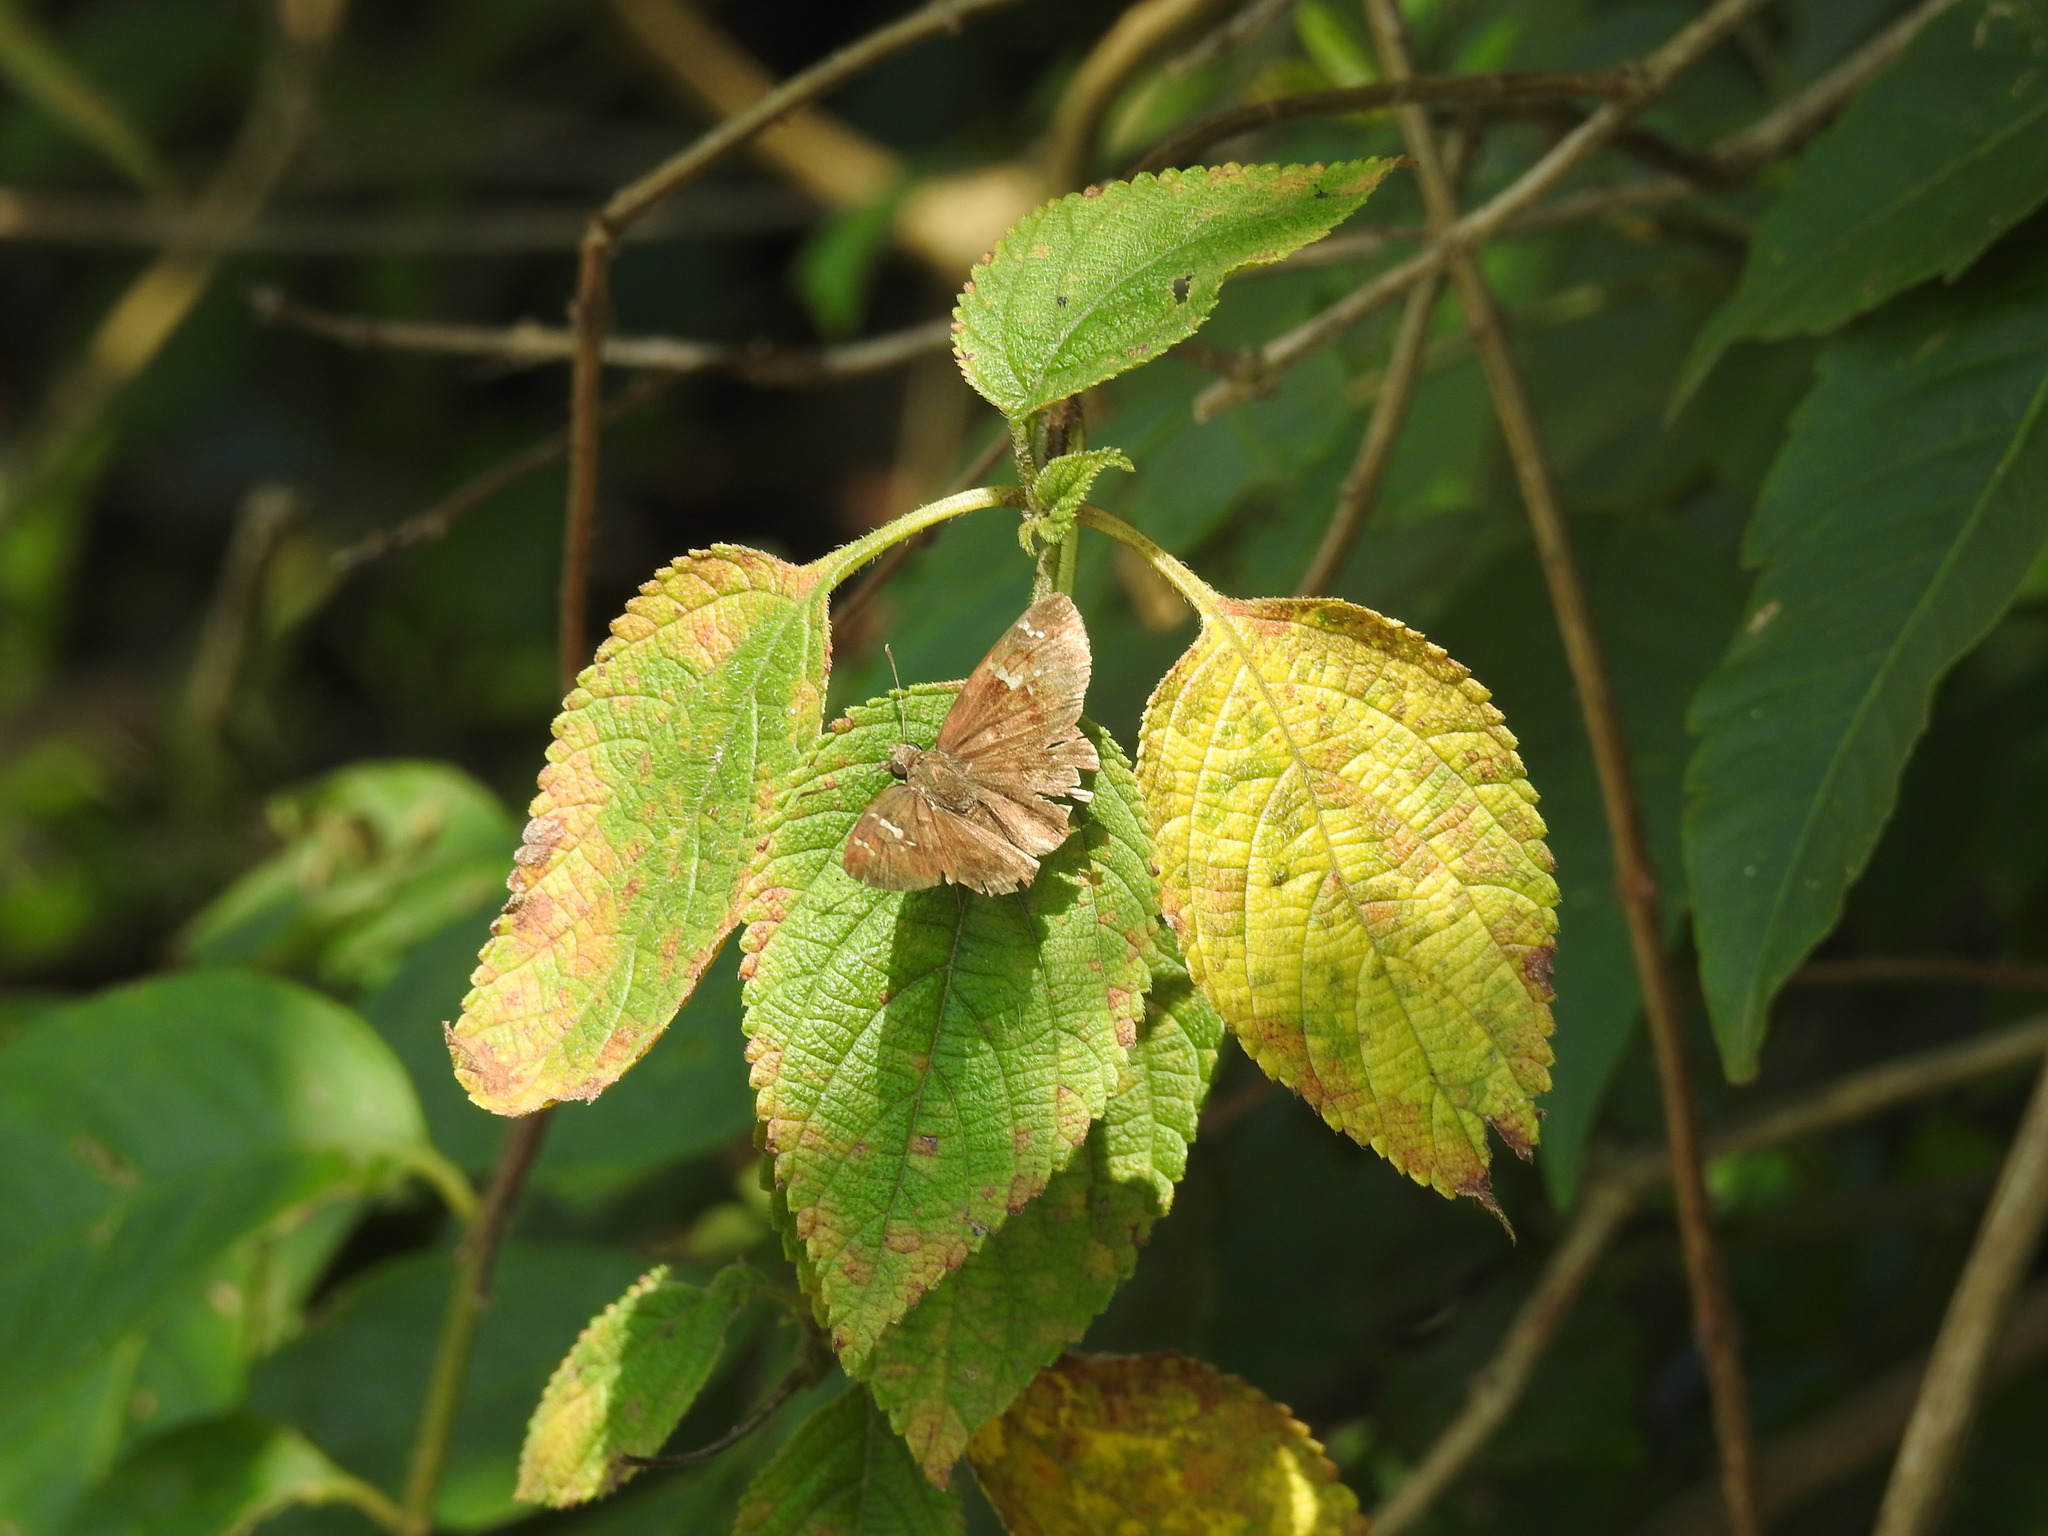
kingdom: Animalia
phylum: Arthropoda
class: Insecta
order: Lepidoptera
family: Hesperiidae
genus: Sarangesa
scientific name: Sarangesa dasahara
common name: Common small flat
